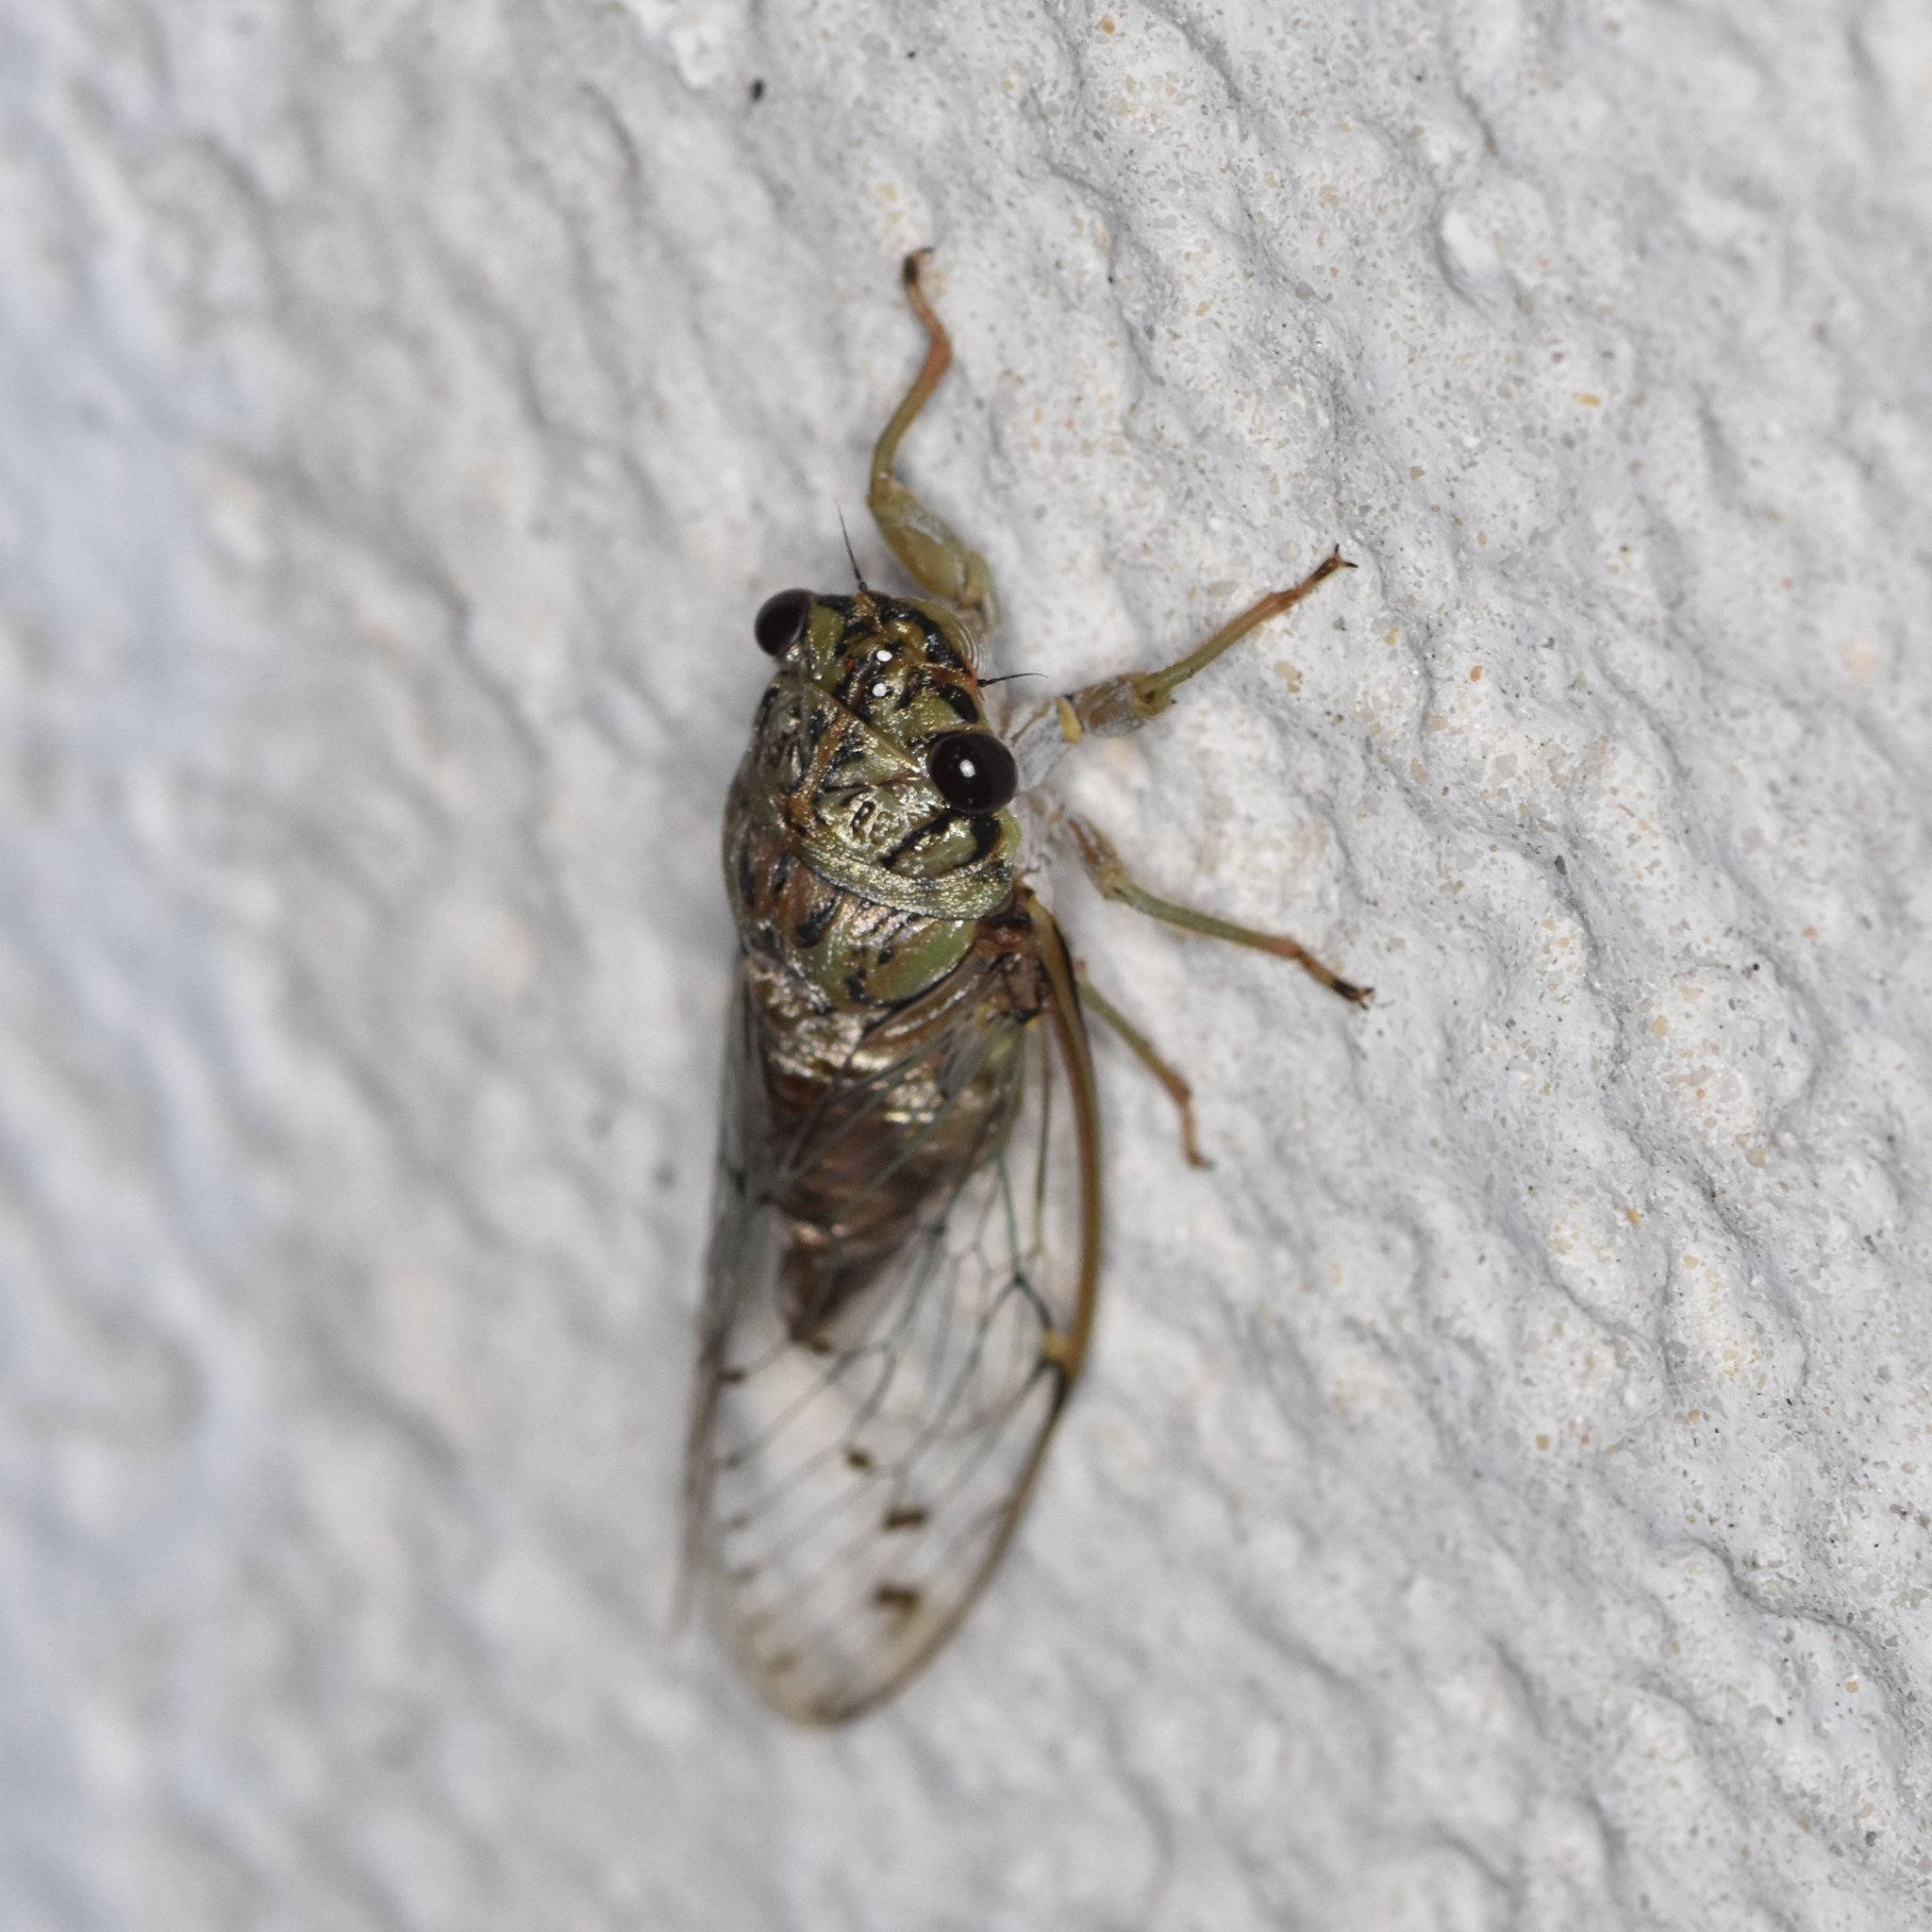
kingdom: Animalia
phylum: Arthropoda
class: Insecta
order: Hemiptera
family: Cicadidae
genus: Neocicada
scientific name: Neocicada hieroglyphica
